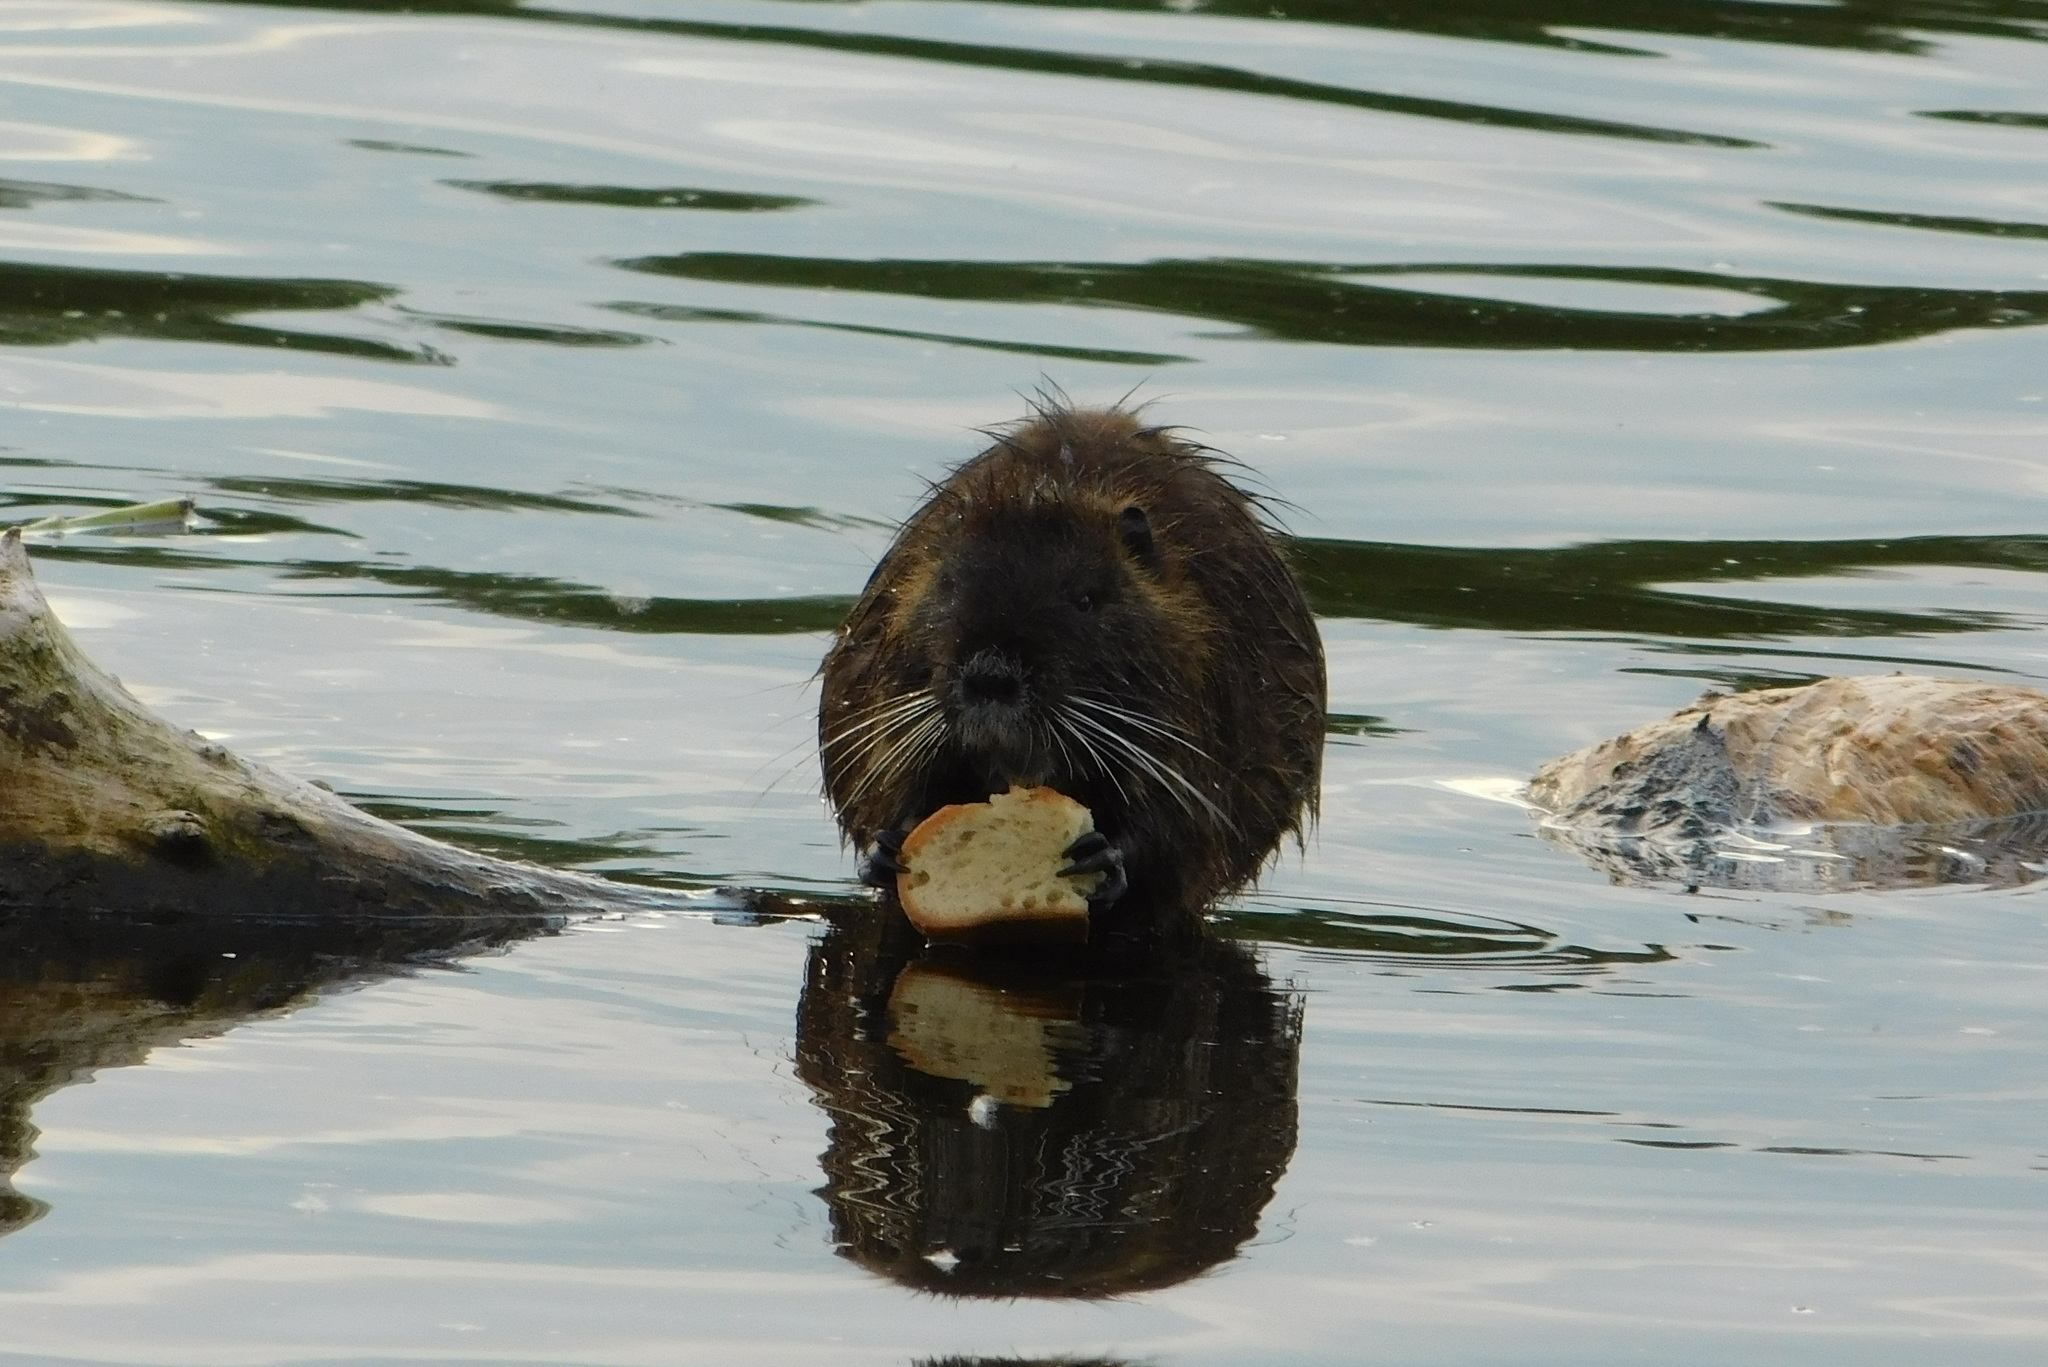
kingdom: Animalia
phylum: Chordata
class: Mammalia
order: Rodentia
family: Myocastoridae
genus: Myocastor
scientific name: Myocastor coypus
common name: Coypu
